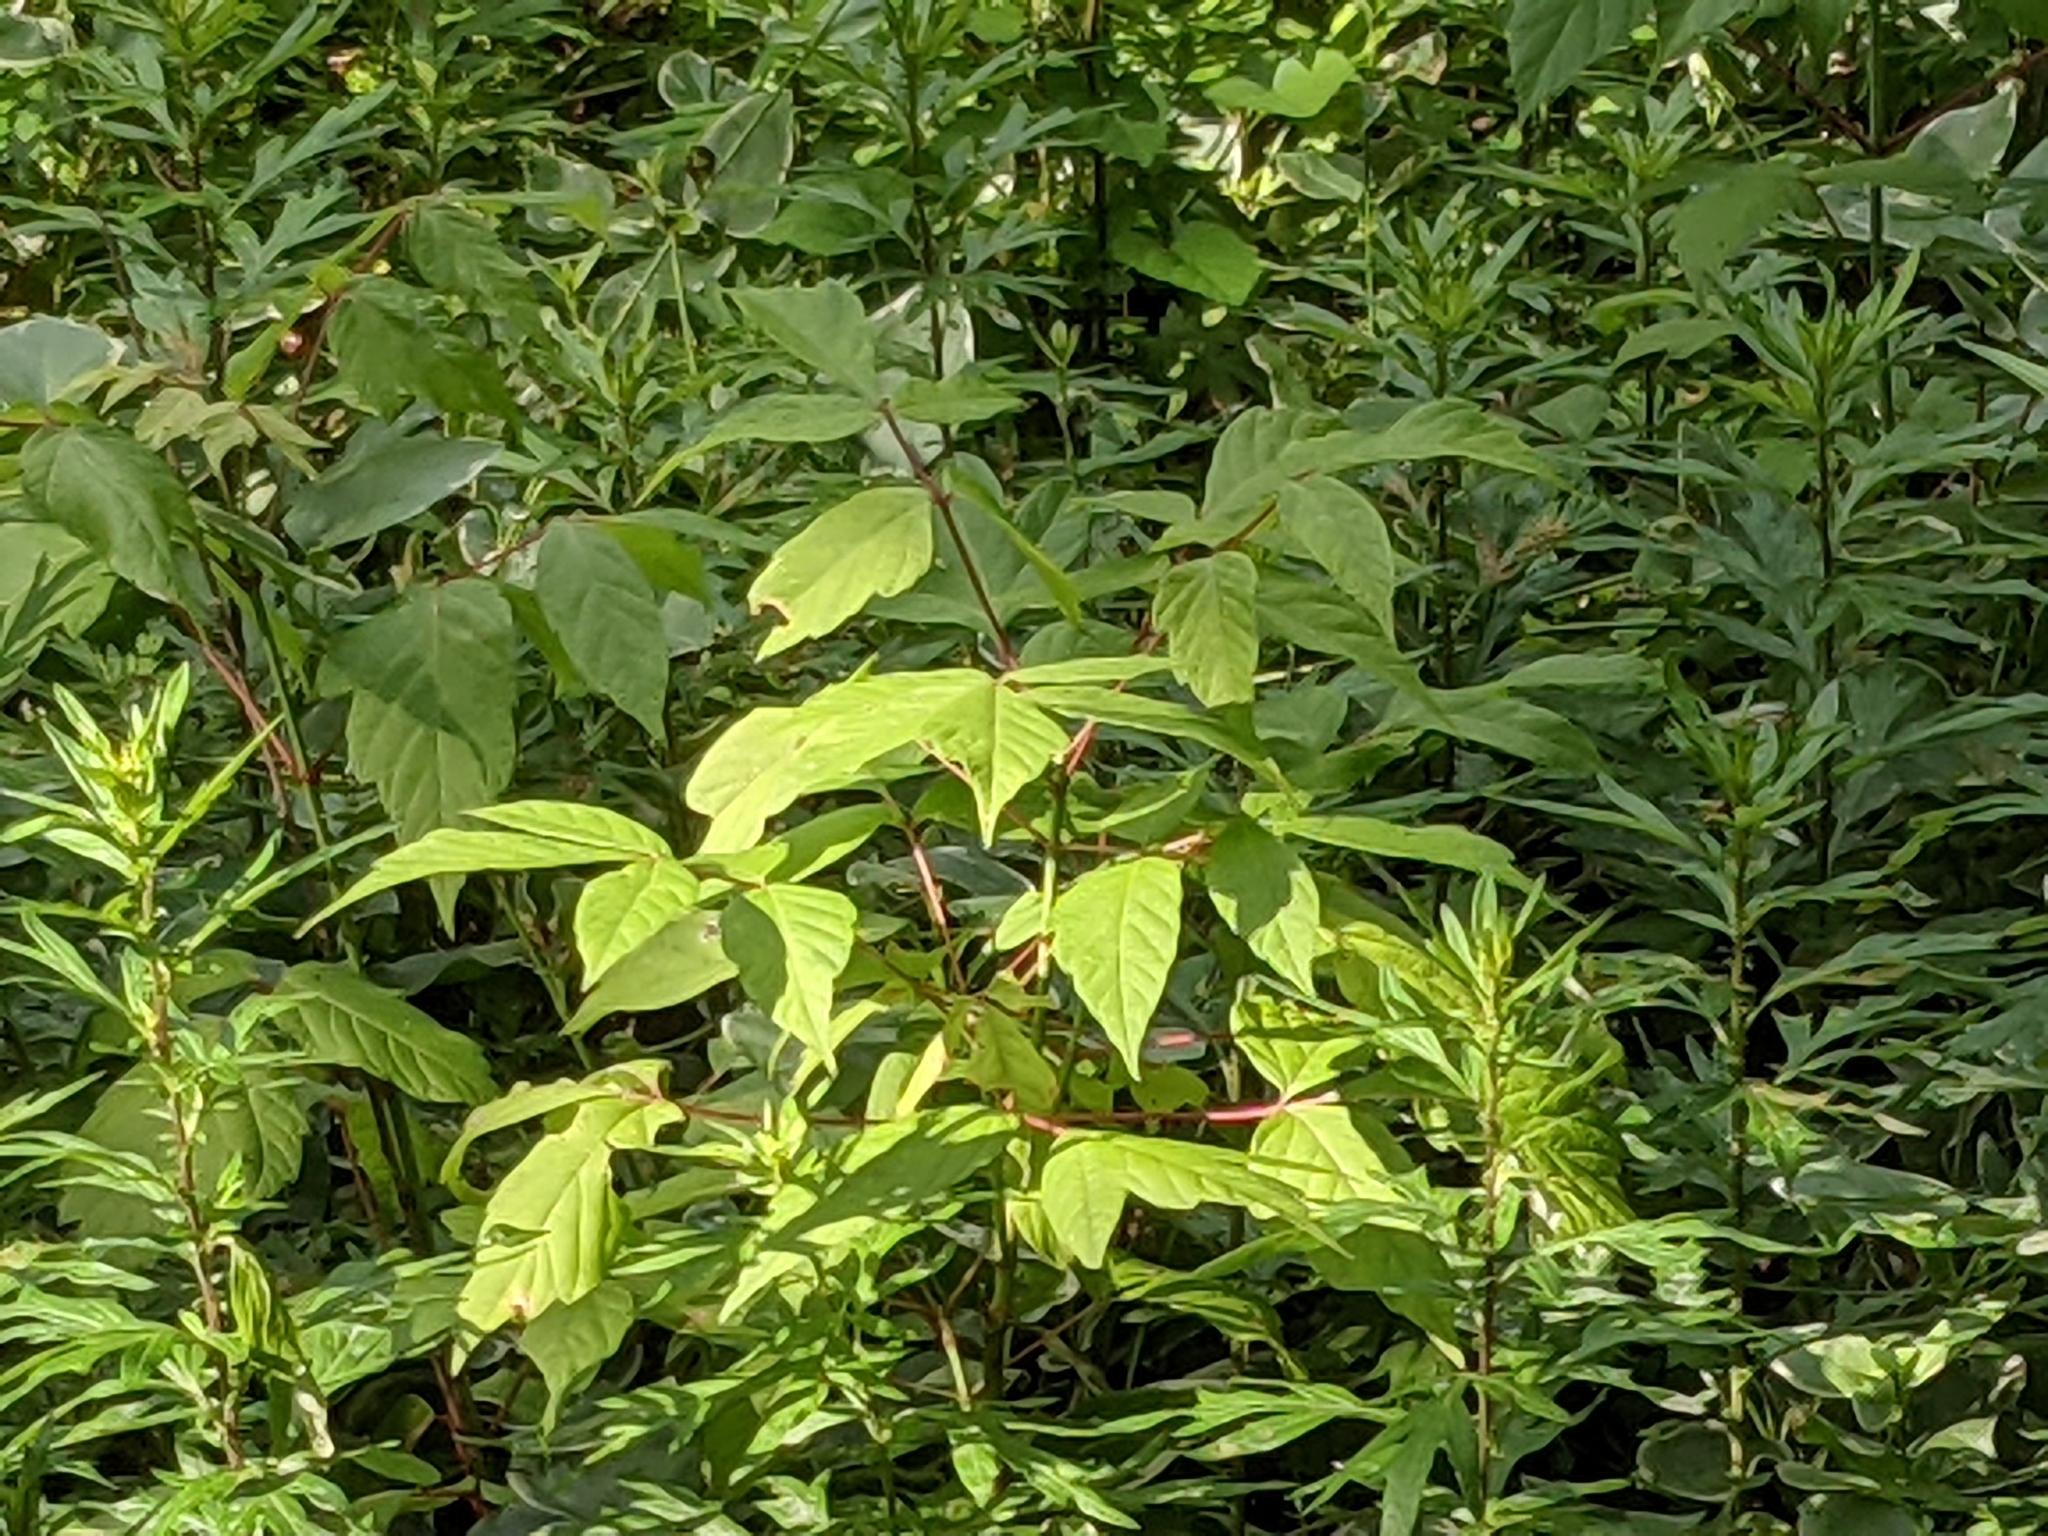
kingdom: Plantae
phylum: Tracheophyta
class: Magnoliopsida
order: Sapindales
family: Sapindaceae
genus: Acer
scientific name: Acer negundo
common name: Ashleaf maple
